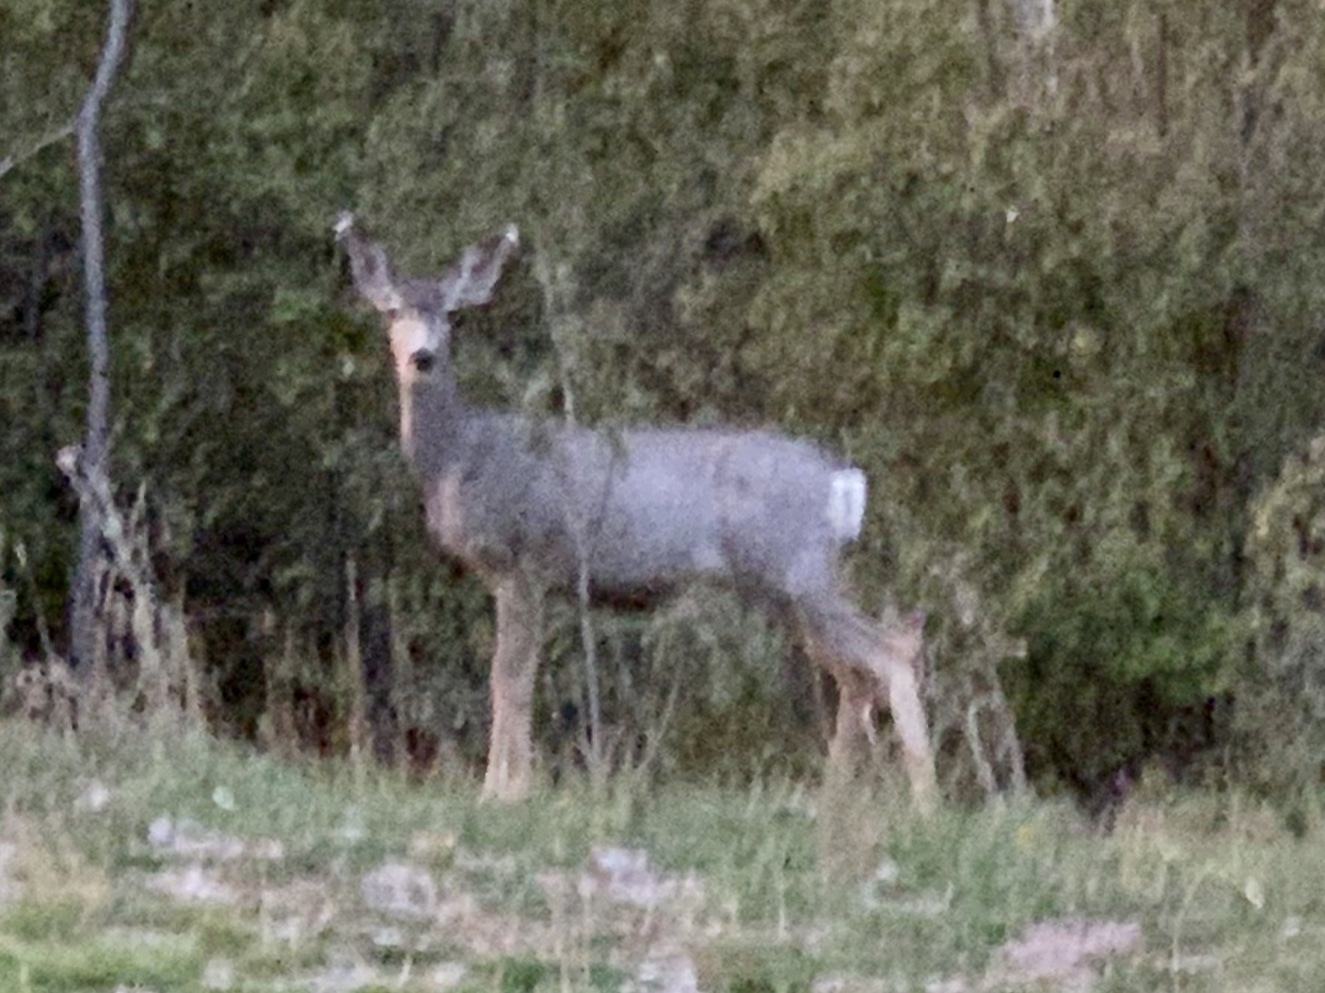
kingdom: Animalia
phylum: Chordata
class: Mammalia
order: Artiodactyla
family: Cervidae
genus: Odocoileus
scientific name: Odocoileus hemionus
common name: Mule deer
